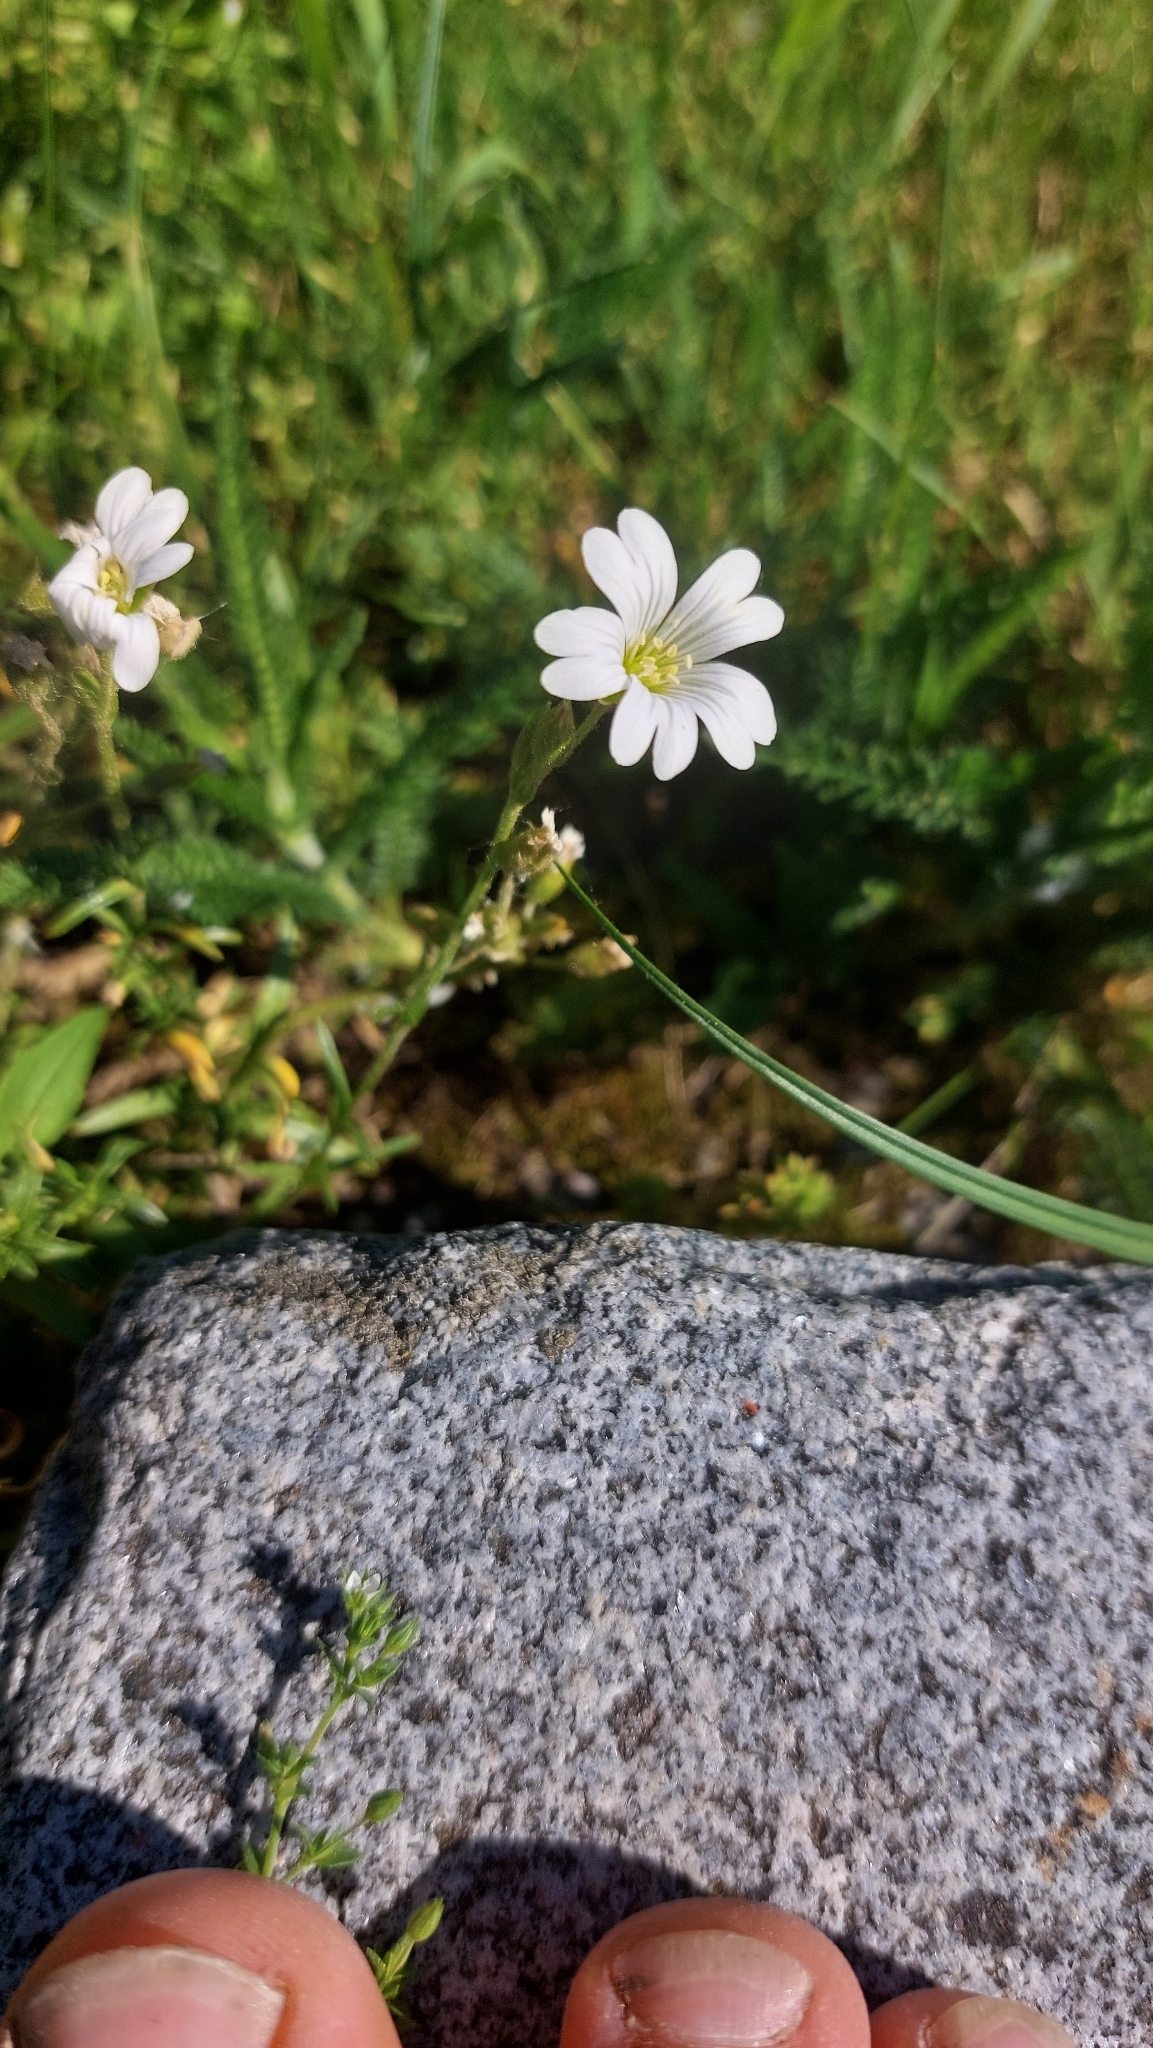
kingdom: Plantae
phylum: Tracheophyta
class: Magnoliopsida
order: Caryophyllales
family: Caryophyllaceae
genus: Cerastium
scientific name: Cerastium arvense
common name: Field mouse-ear
